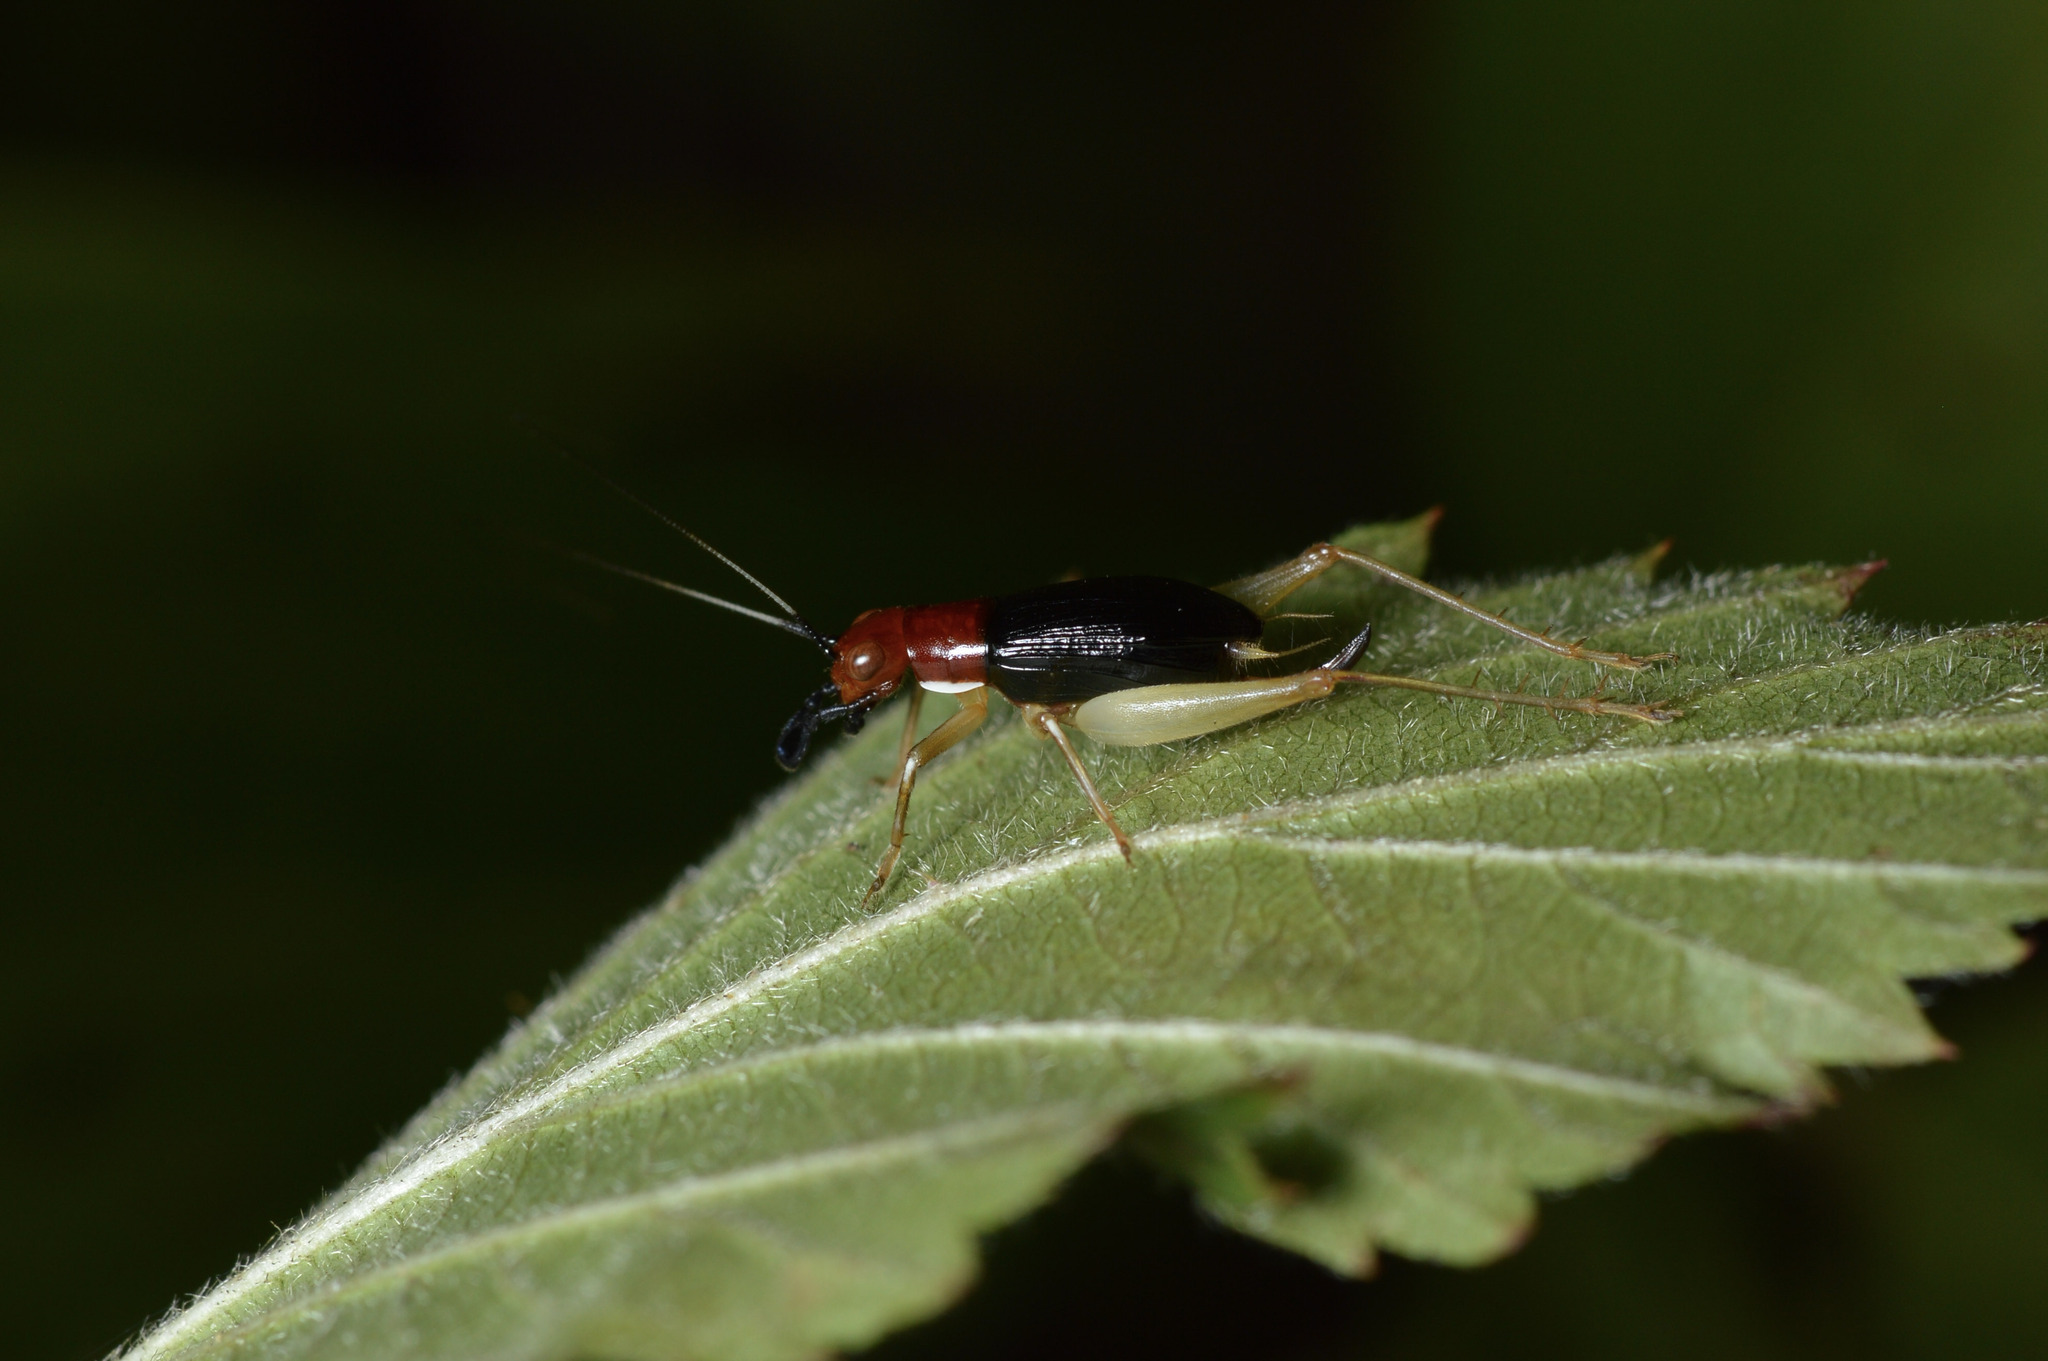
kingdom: Animalia
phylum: Arthropoda
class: Insecta
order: Orthoptera
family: Trigonidiidae
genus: Phyllopalpus
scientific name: Phyllopalpus pulchellus
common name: Handsome trig
